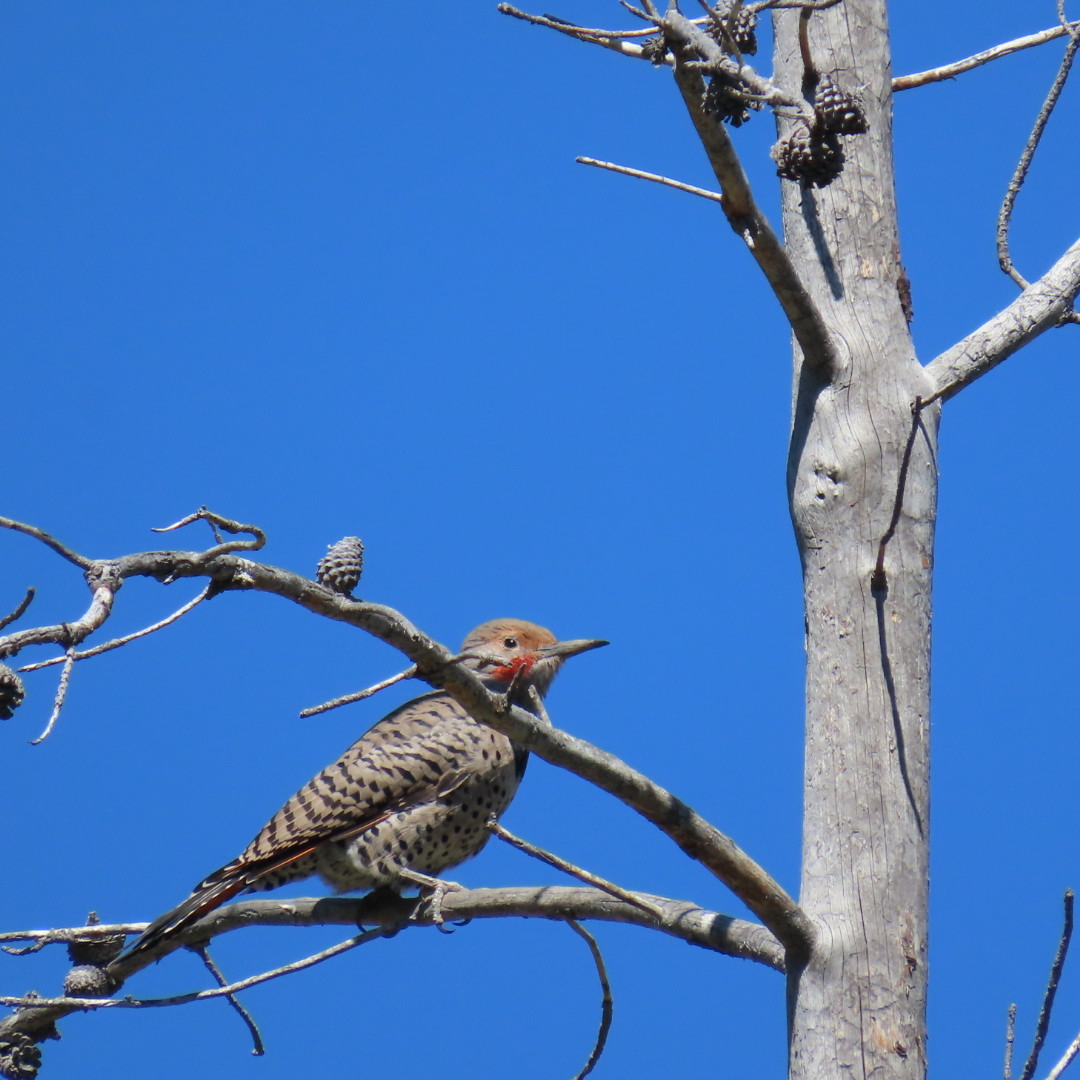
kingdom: Animalia
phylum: Chordata
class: Aves
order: Piciformes
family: Picidae
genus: Colaptes
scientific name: Colaptes auratus
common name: Northern flicker
